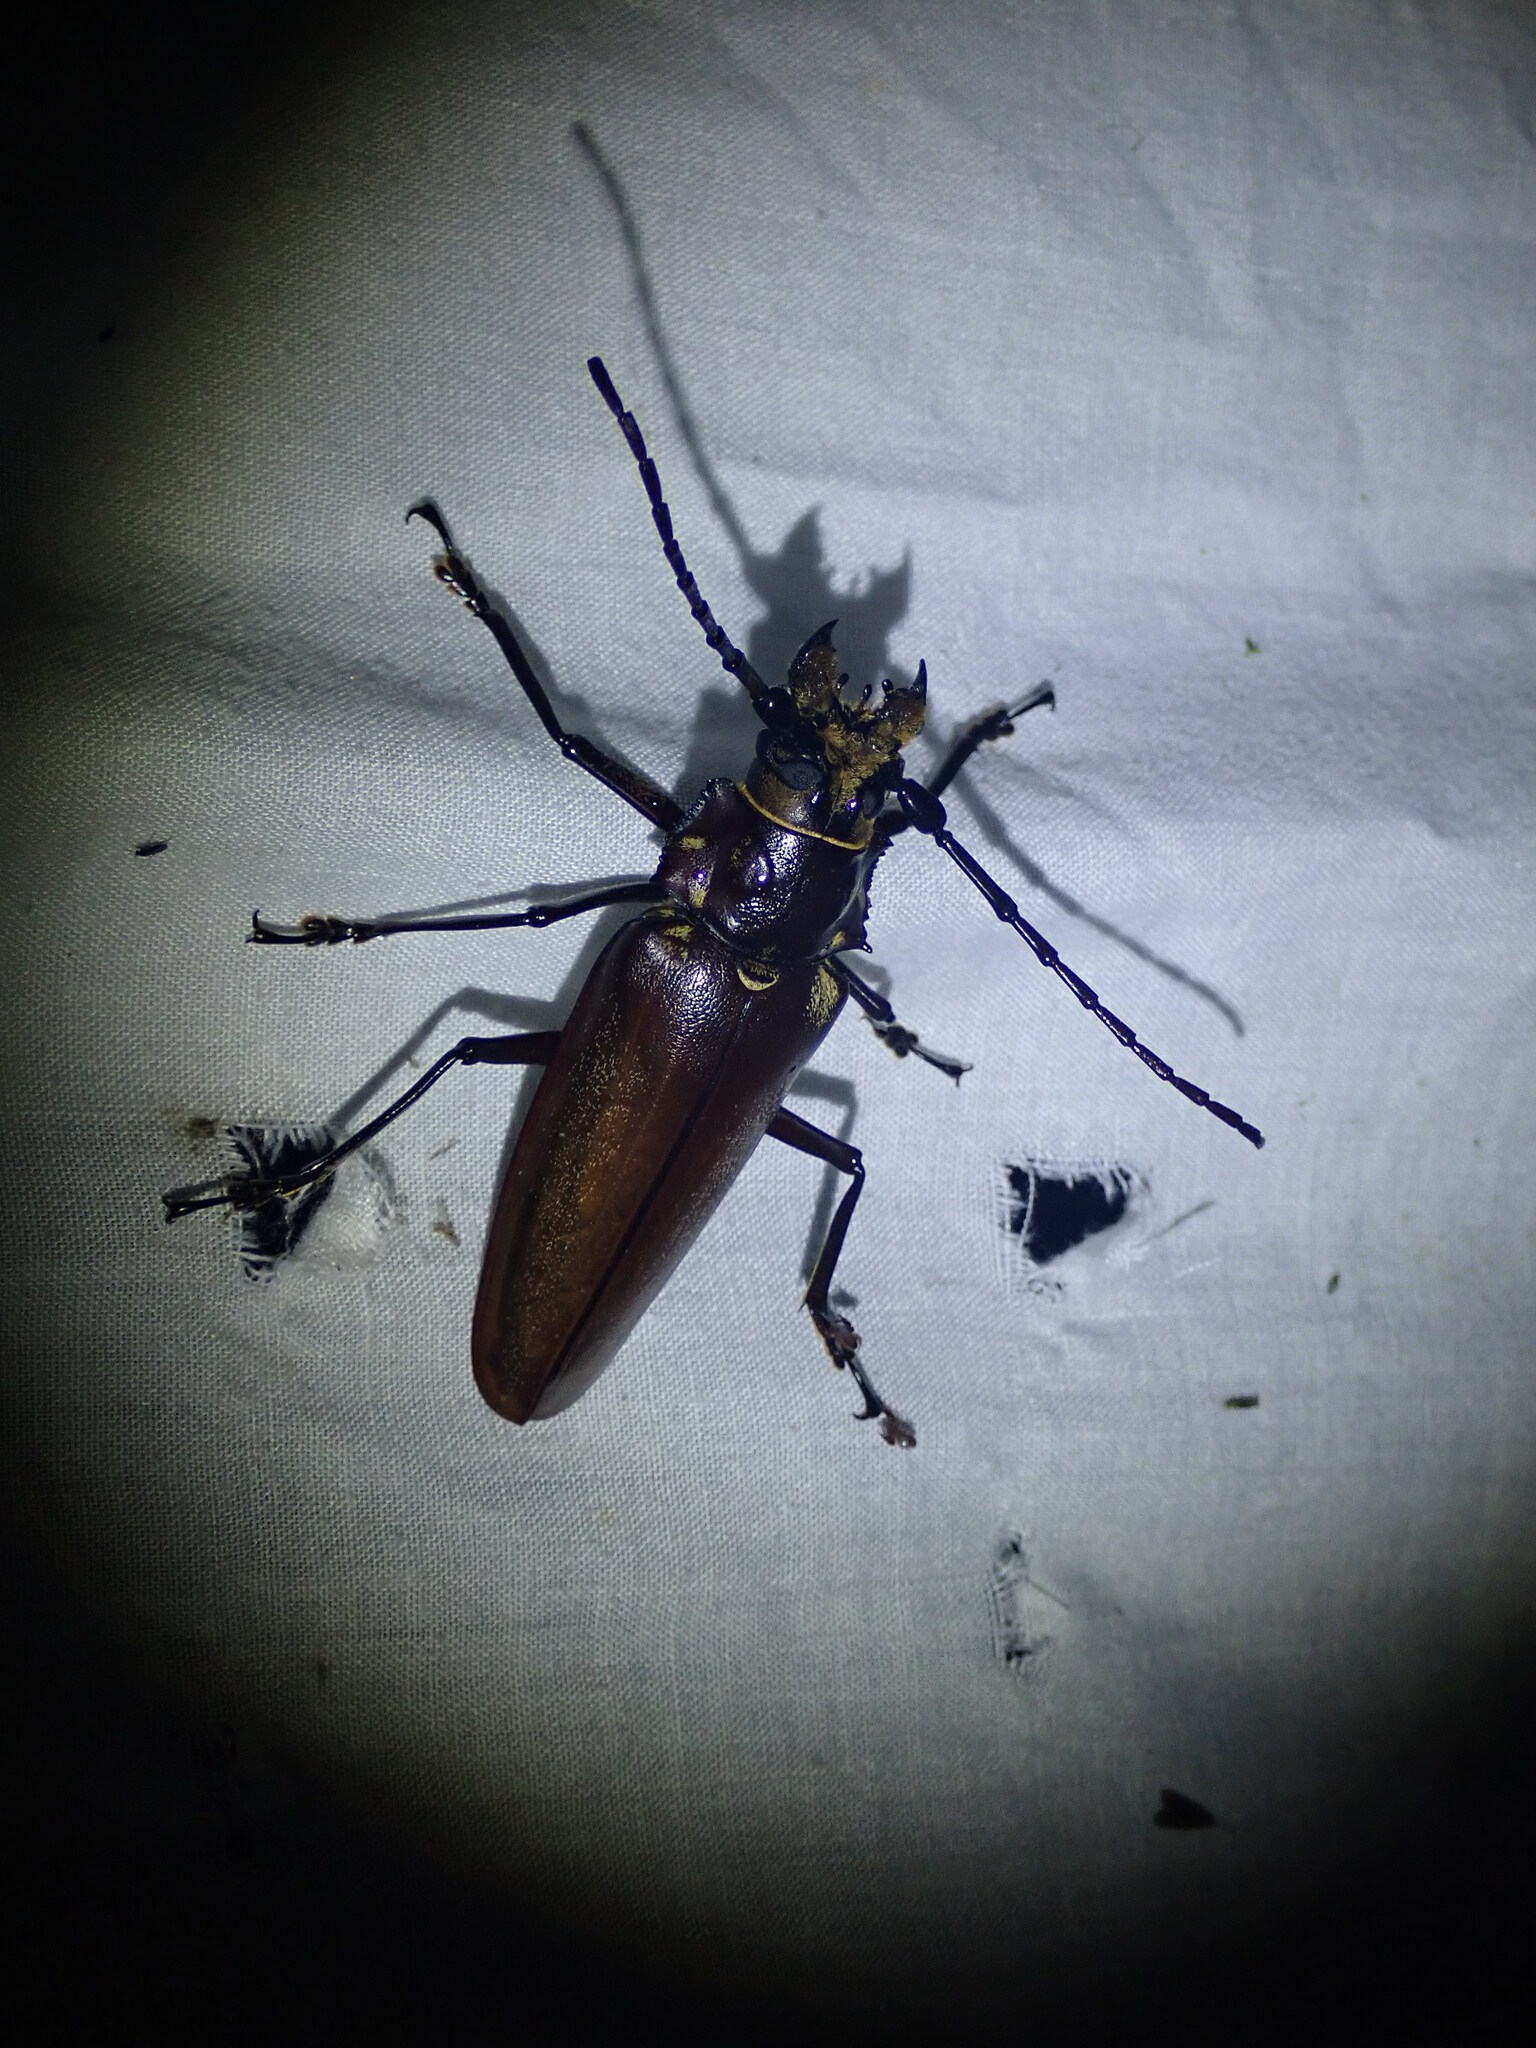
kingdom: Animalia
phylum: Arthropoda
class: Insecta
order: Coleoptera
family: Cerambycidae
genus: Callipogon
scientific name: Callipogon lemoinei
